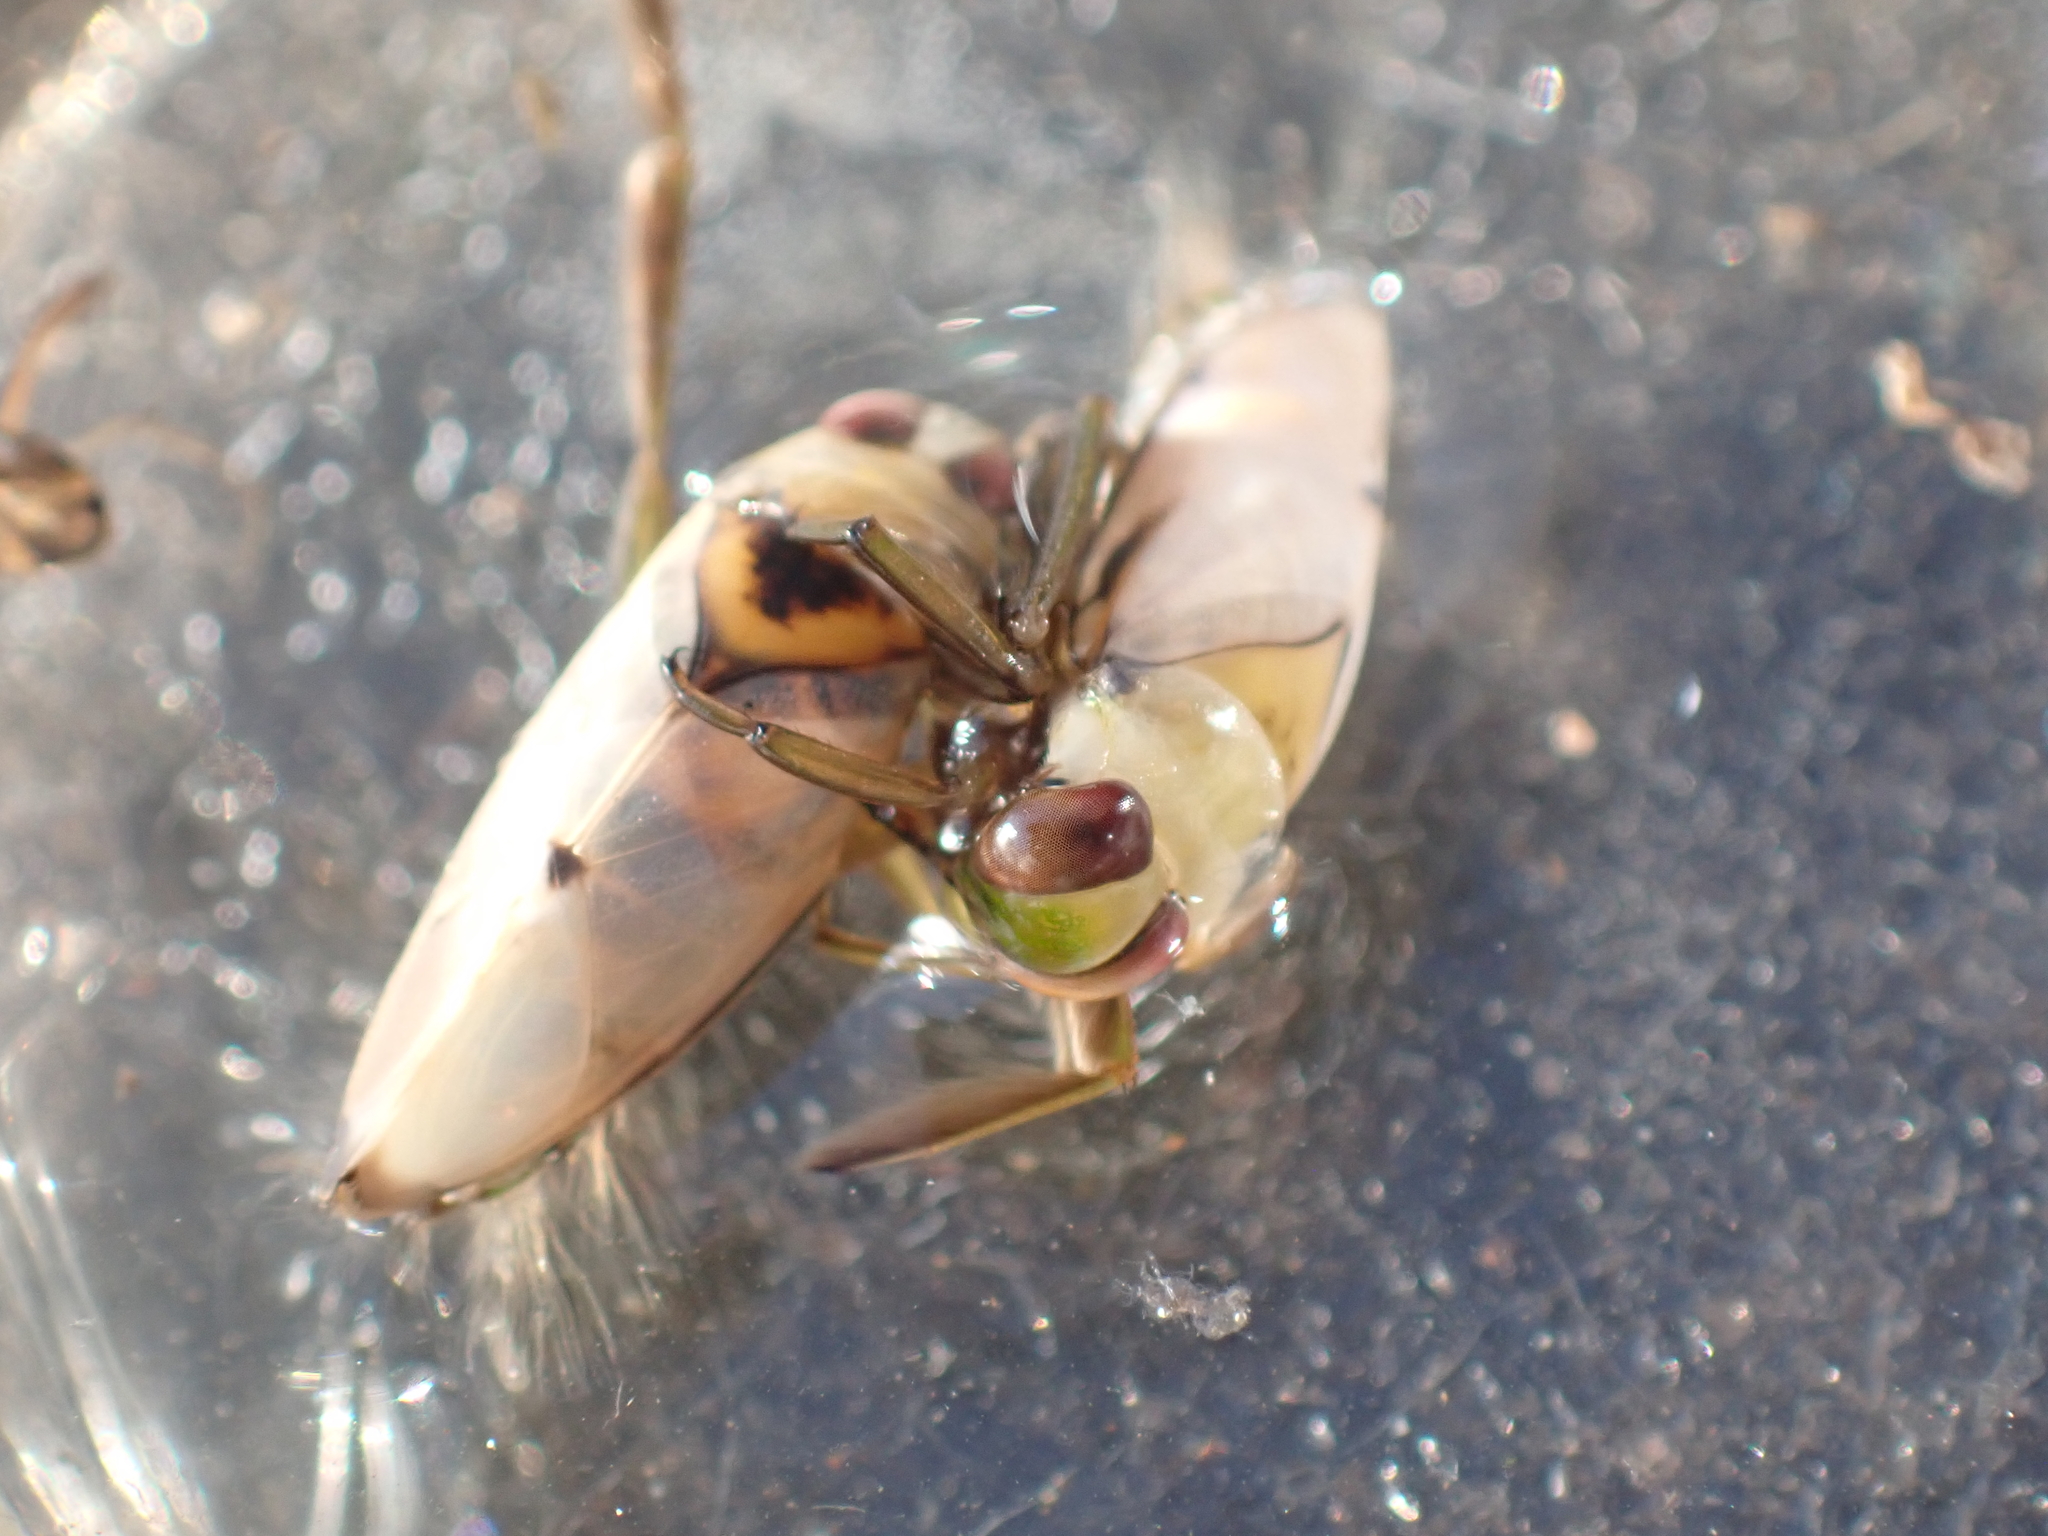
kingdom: Animalia
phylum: Arthropoda
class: Insecta
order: Hemiptera
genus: Paranecta
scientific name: Paranecta
